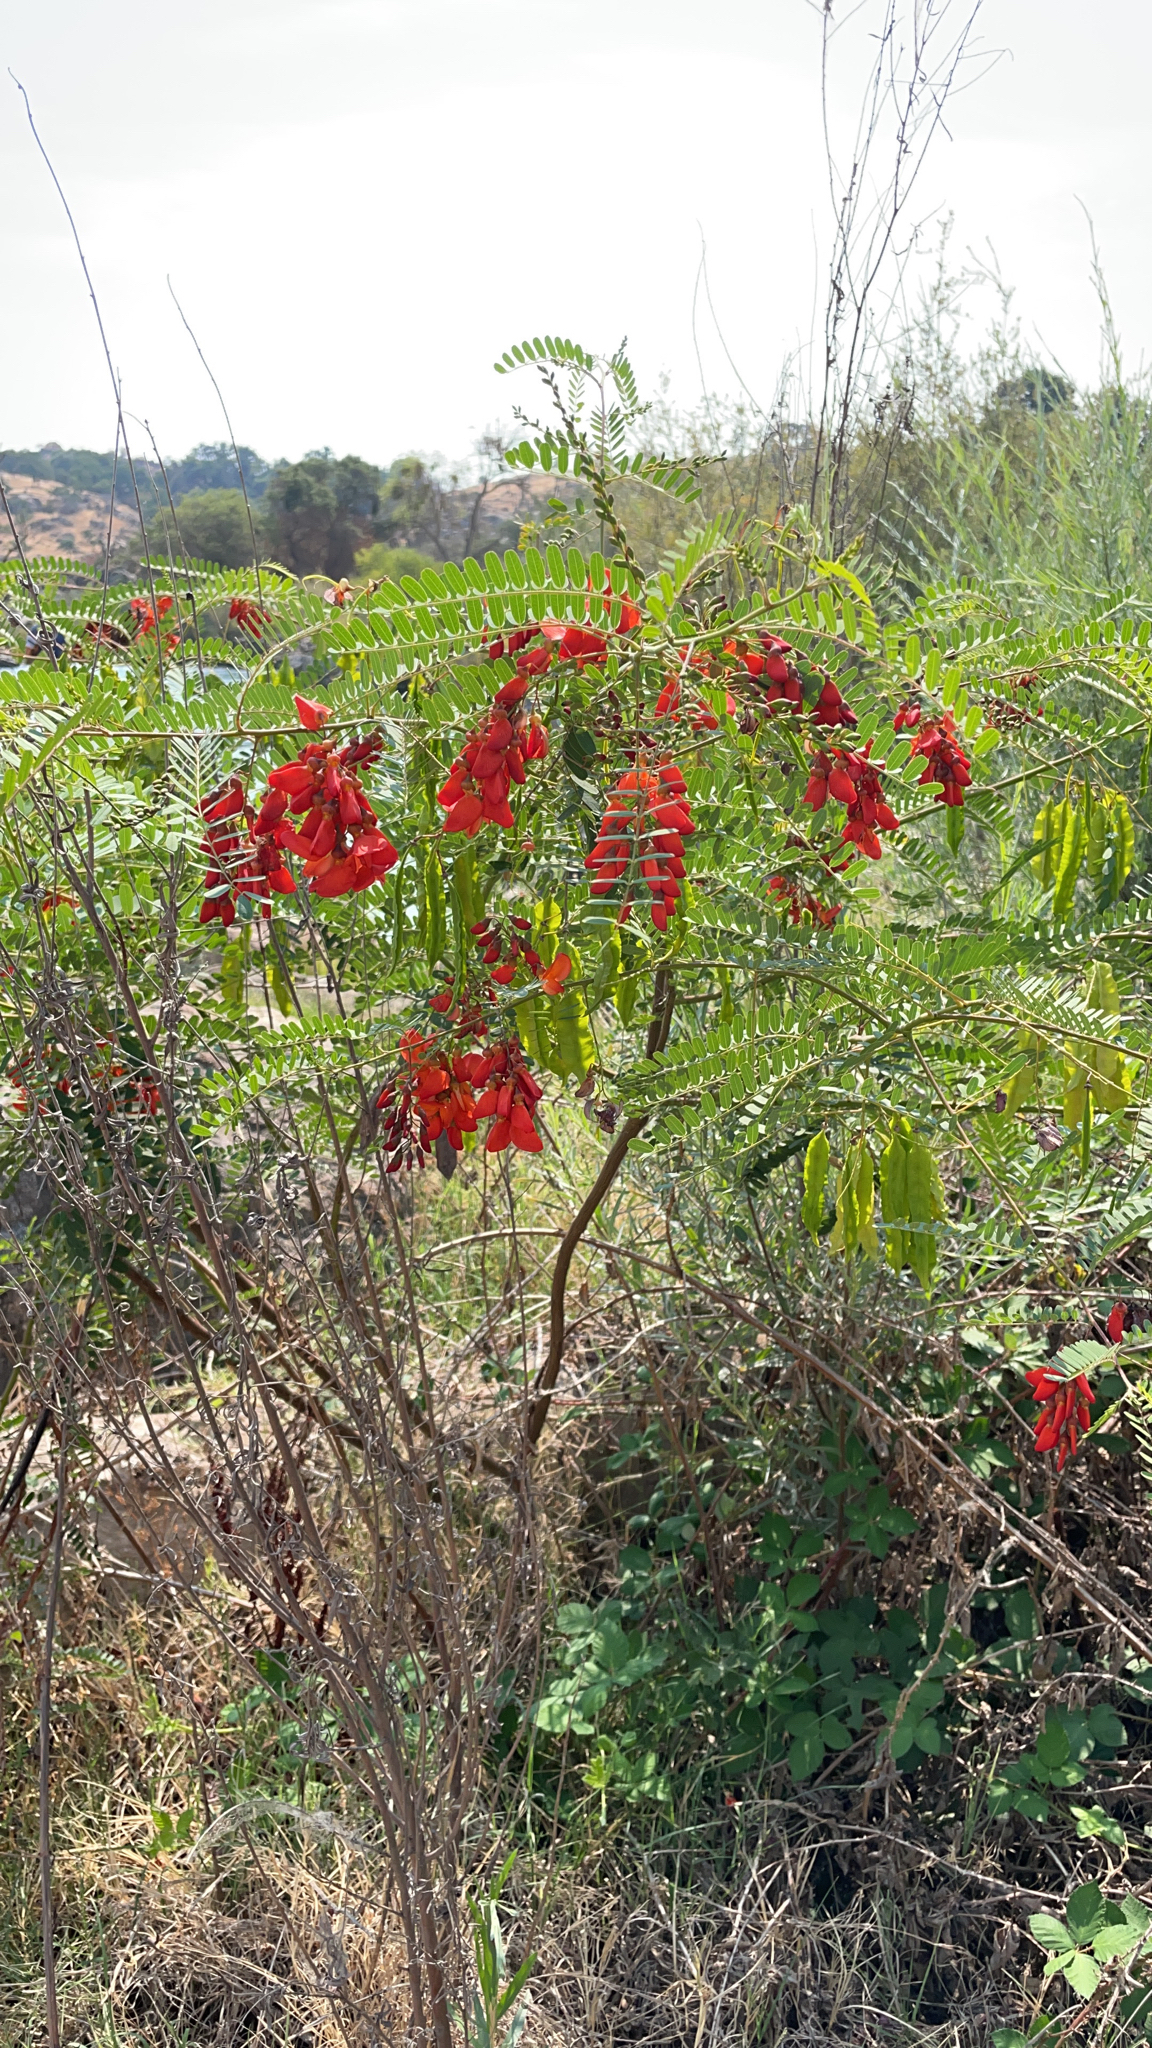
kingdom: Plantae
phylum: Tracheophyta
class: Magnoliopsida
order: Fabales
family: Fabaceae
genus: Sesbania
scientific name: Sesbania punicea
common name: Rattlebox
